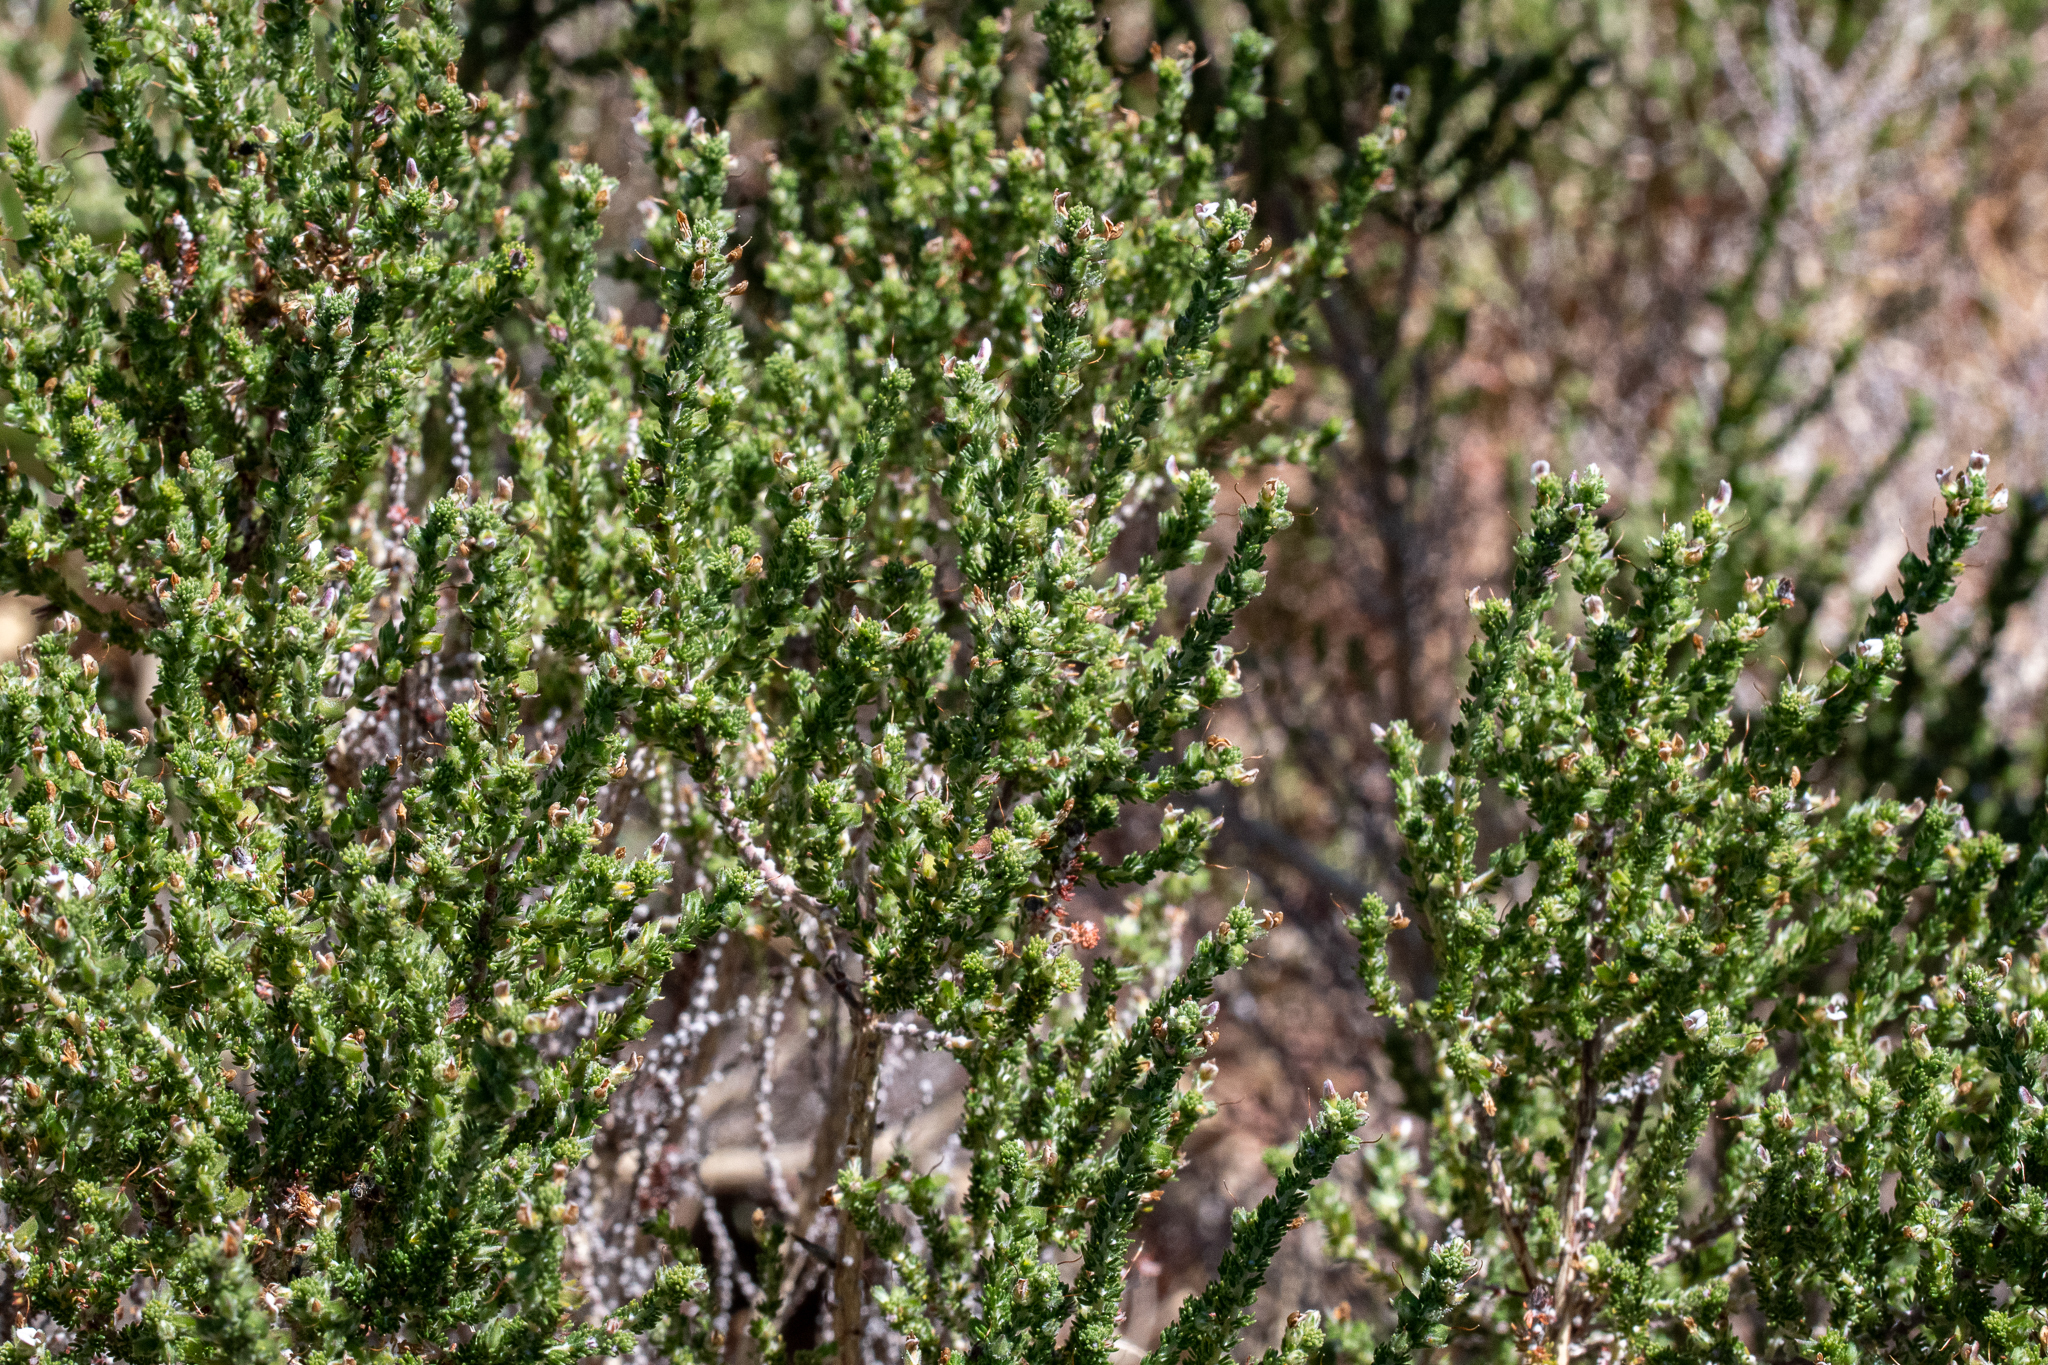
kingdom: Plantae
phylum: Tracheophyta
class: Magnoliopsida
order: Fabales
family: Fabaceae
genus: Aspalathus
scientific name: Aspalathus hispida
